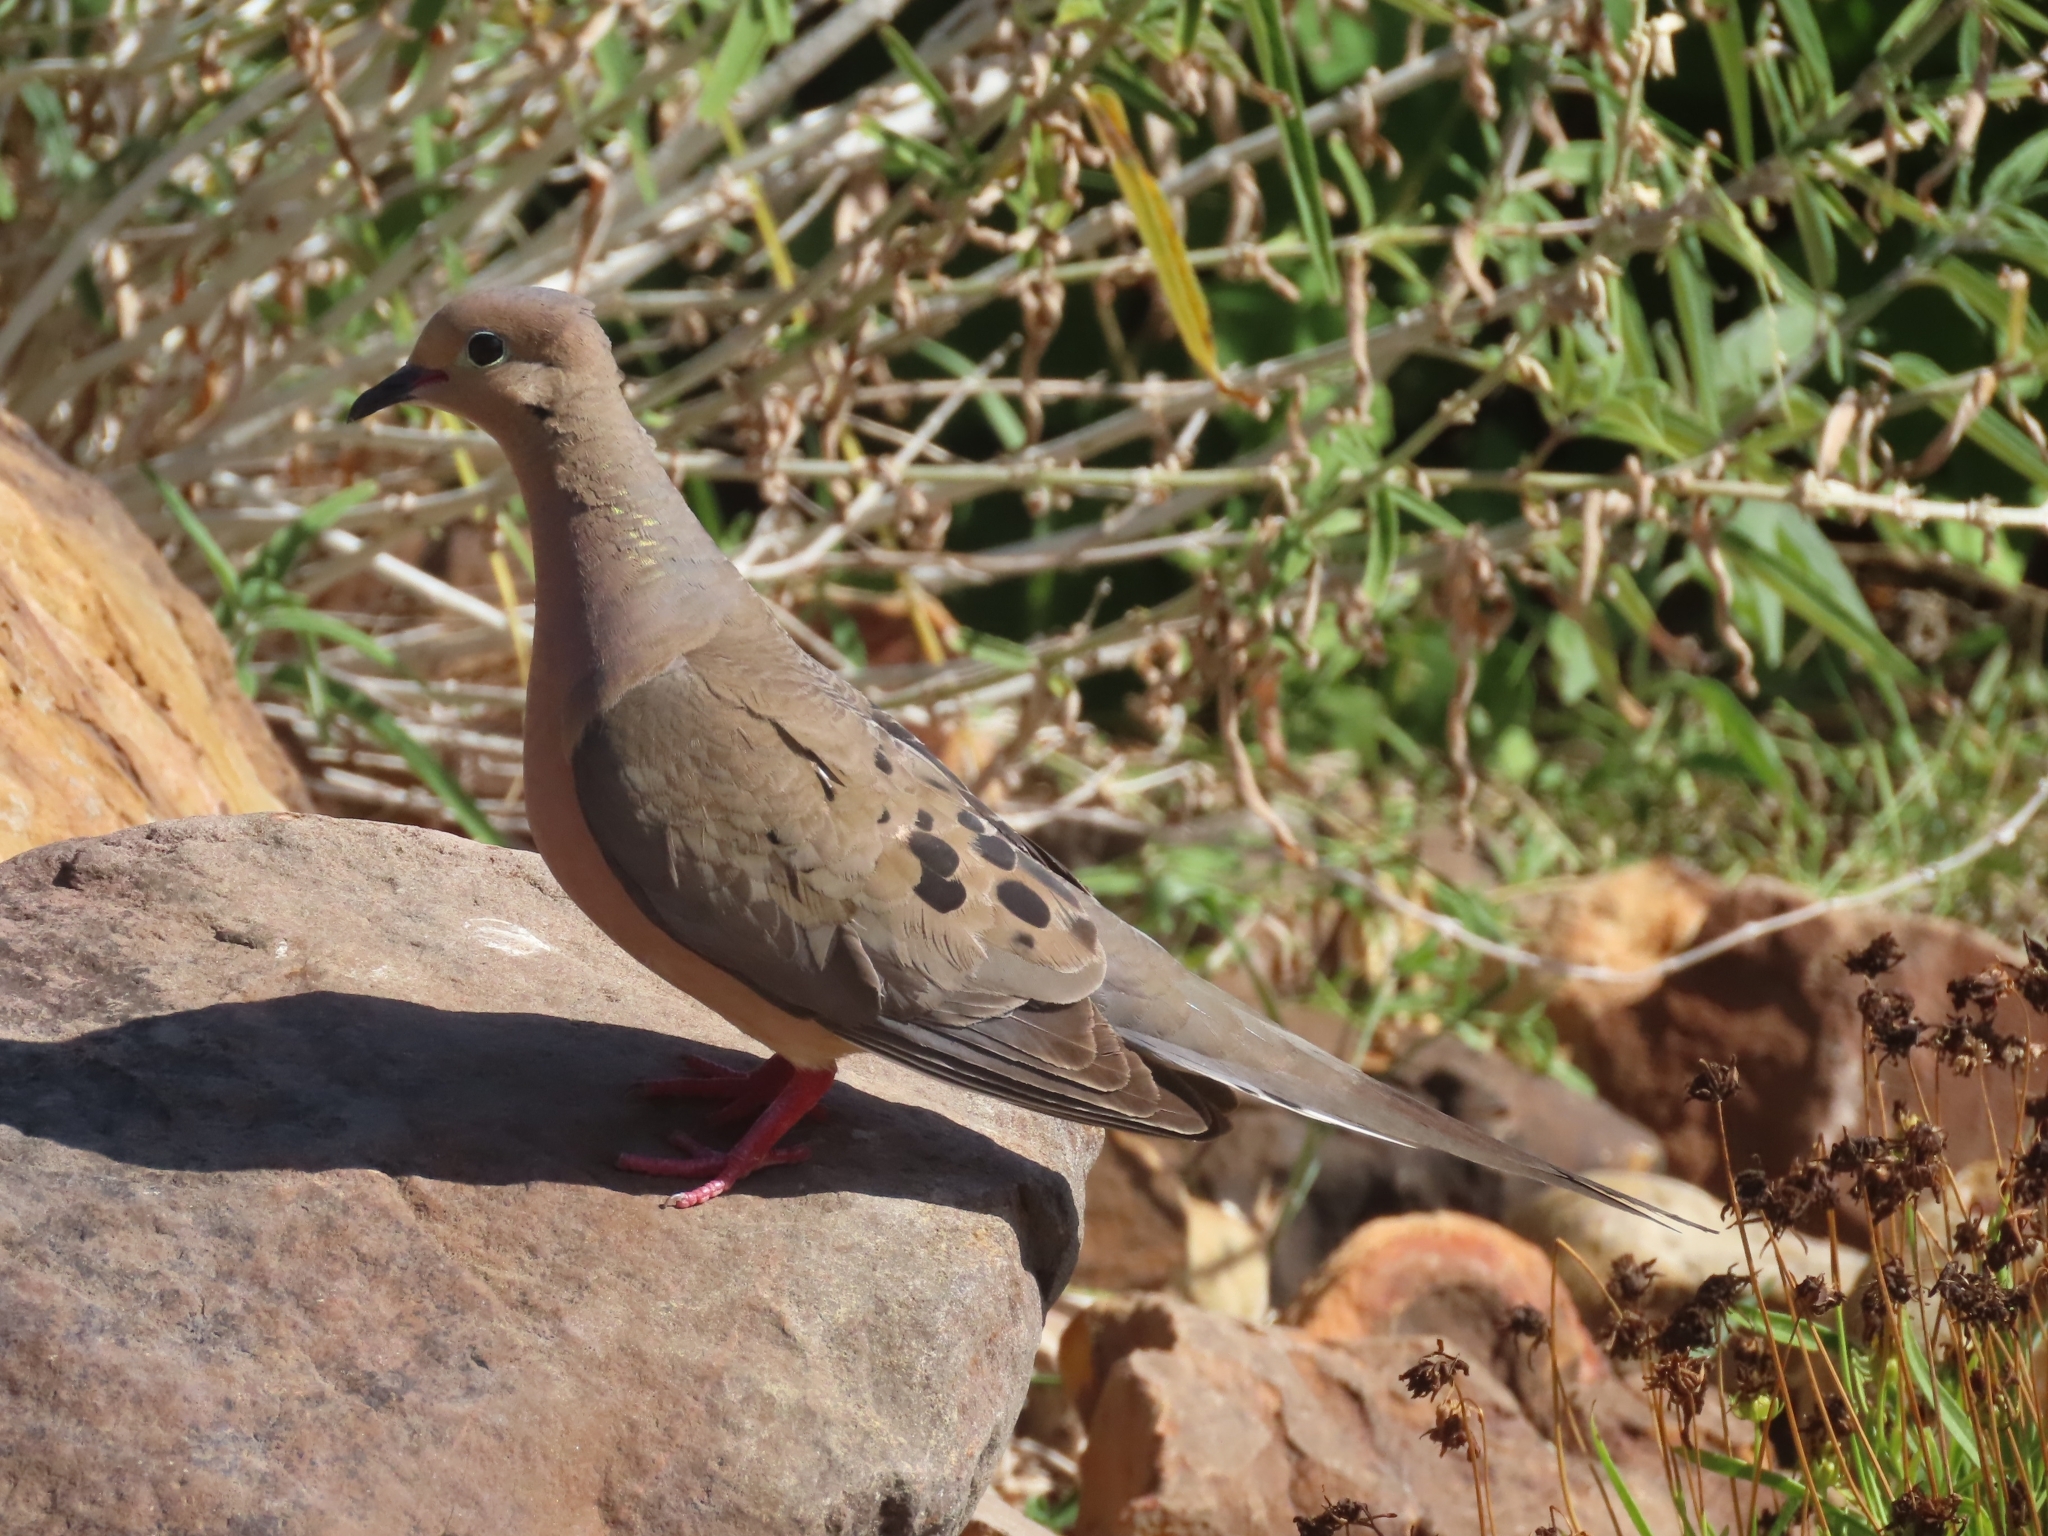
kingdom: Animalia
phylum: Chordata
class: Aves
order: Columbiformes
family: Columbidae
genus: Zenaida
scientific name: Zenaida macroura
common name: Mourning dove
